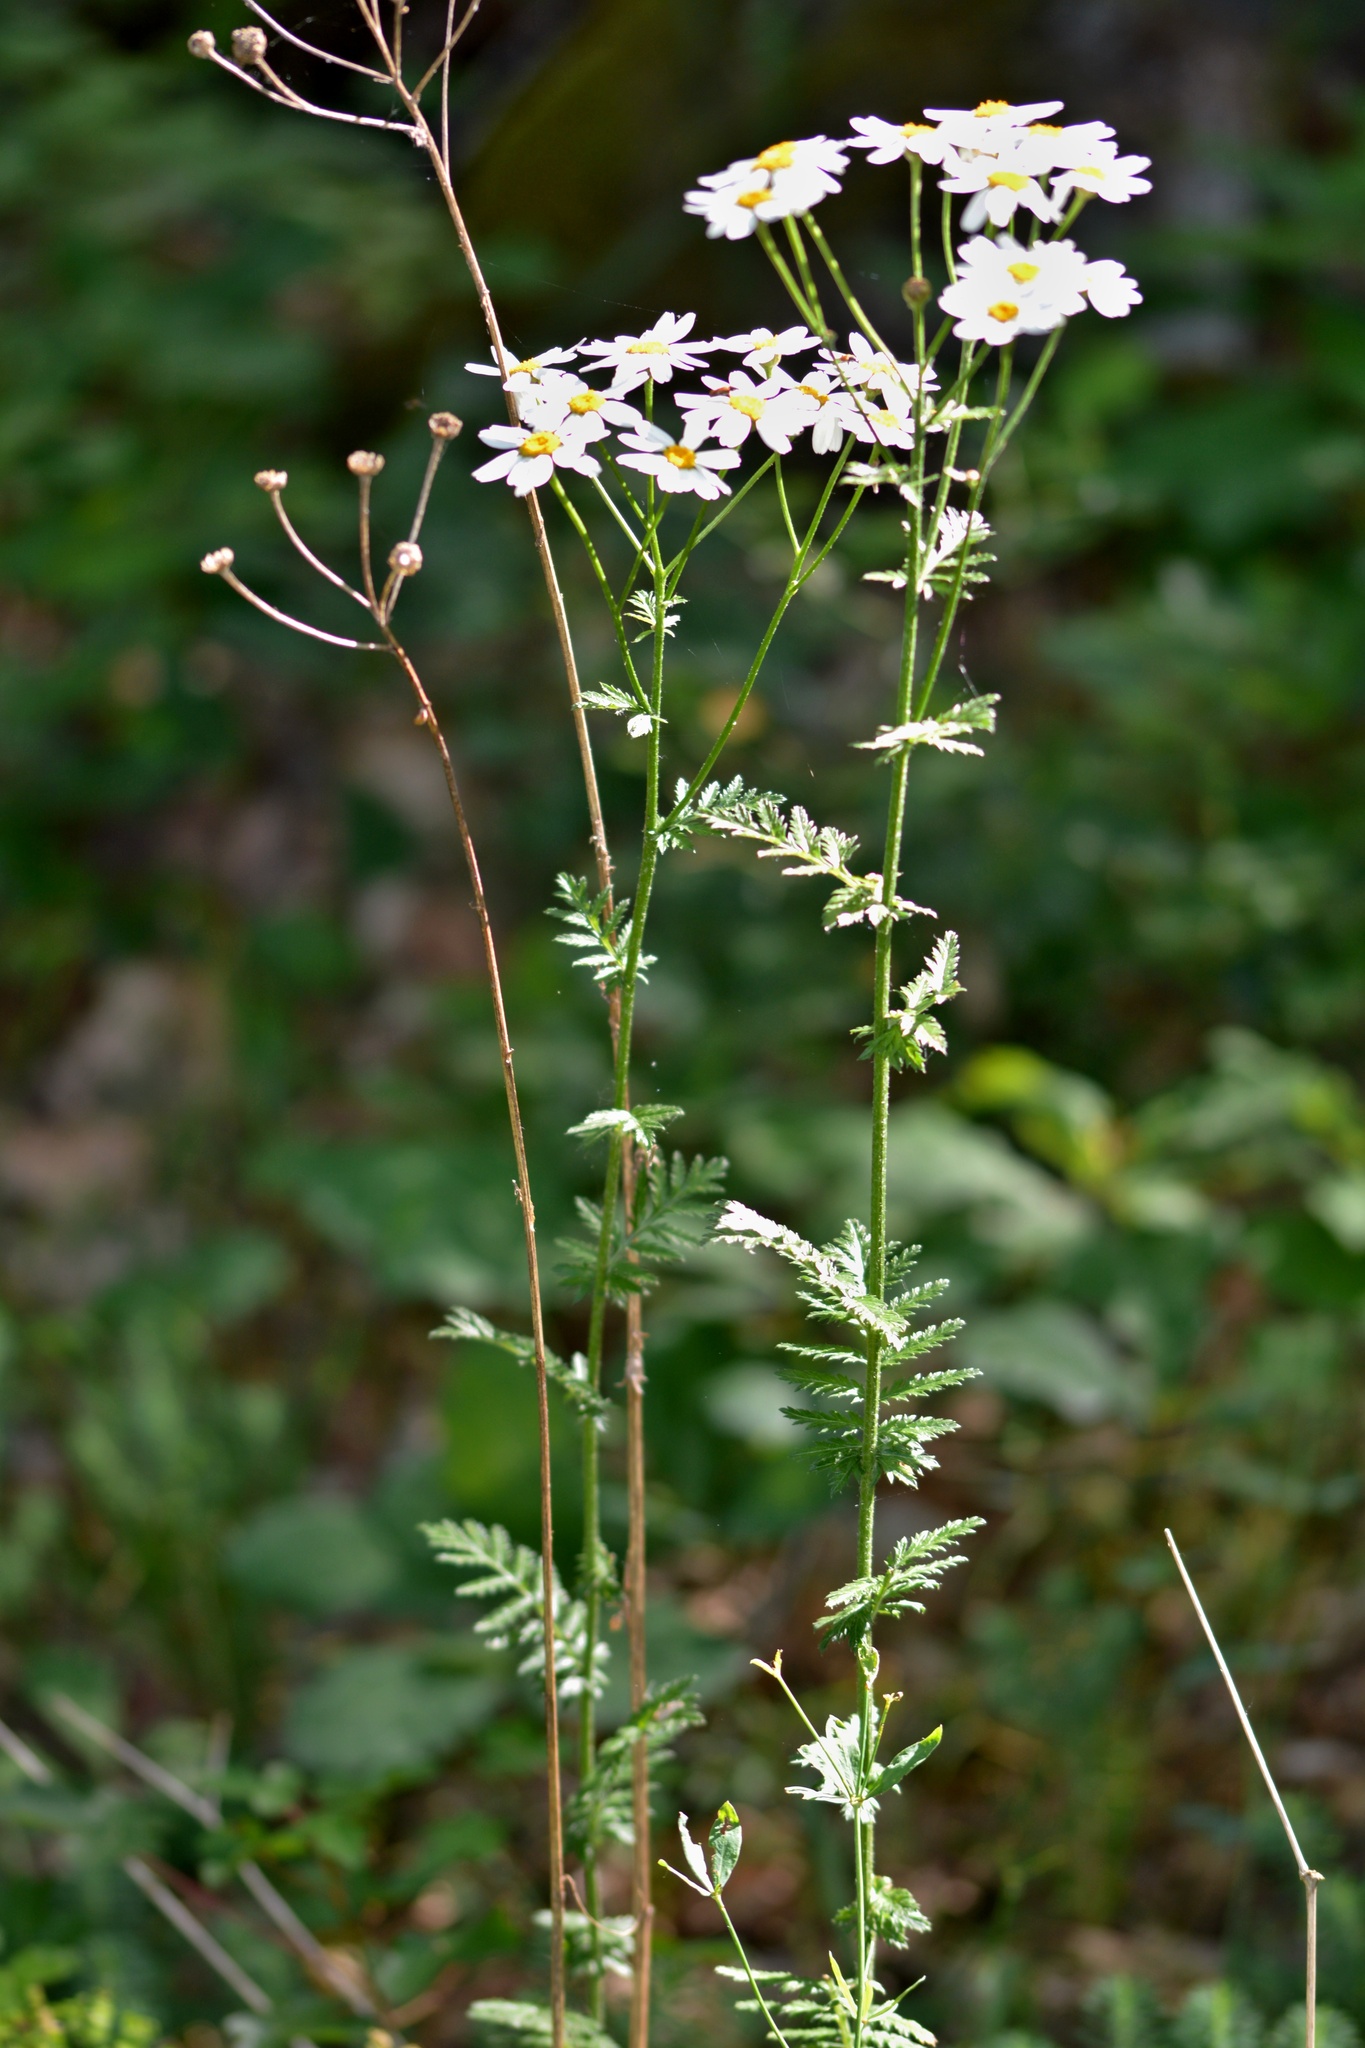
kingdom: Plantae
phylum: Tracheophyta
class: Magnoliopsida
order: Asterales
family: Asteraceae
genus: Tanacetum
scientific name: Tanacetum corymbosum
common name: Scentless feverfew
